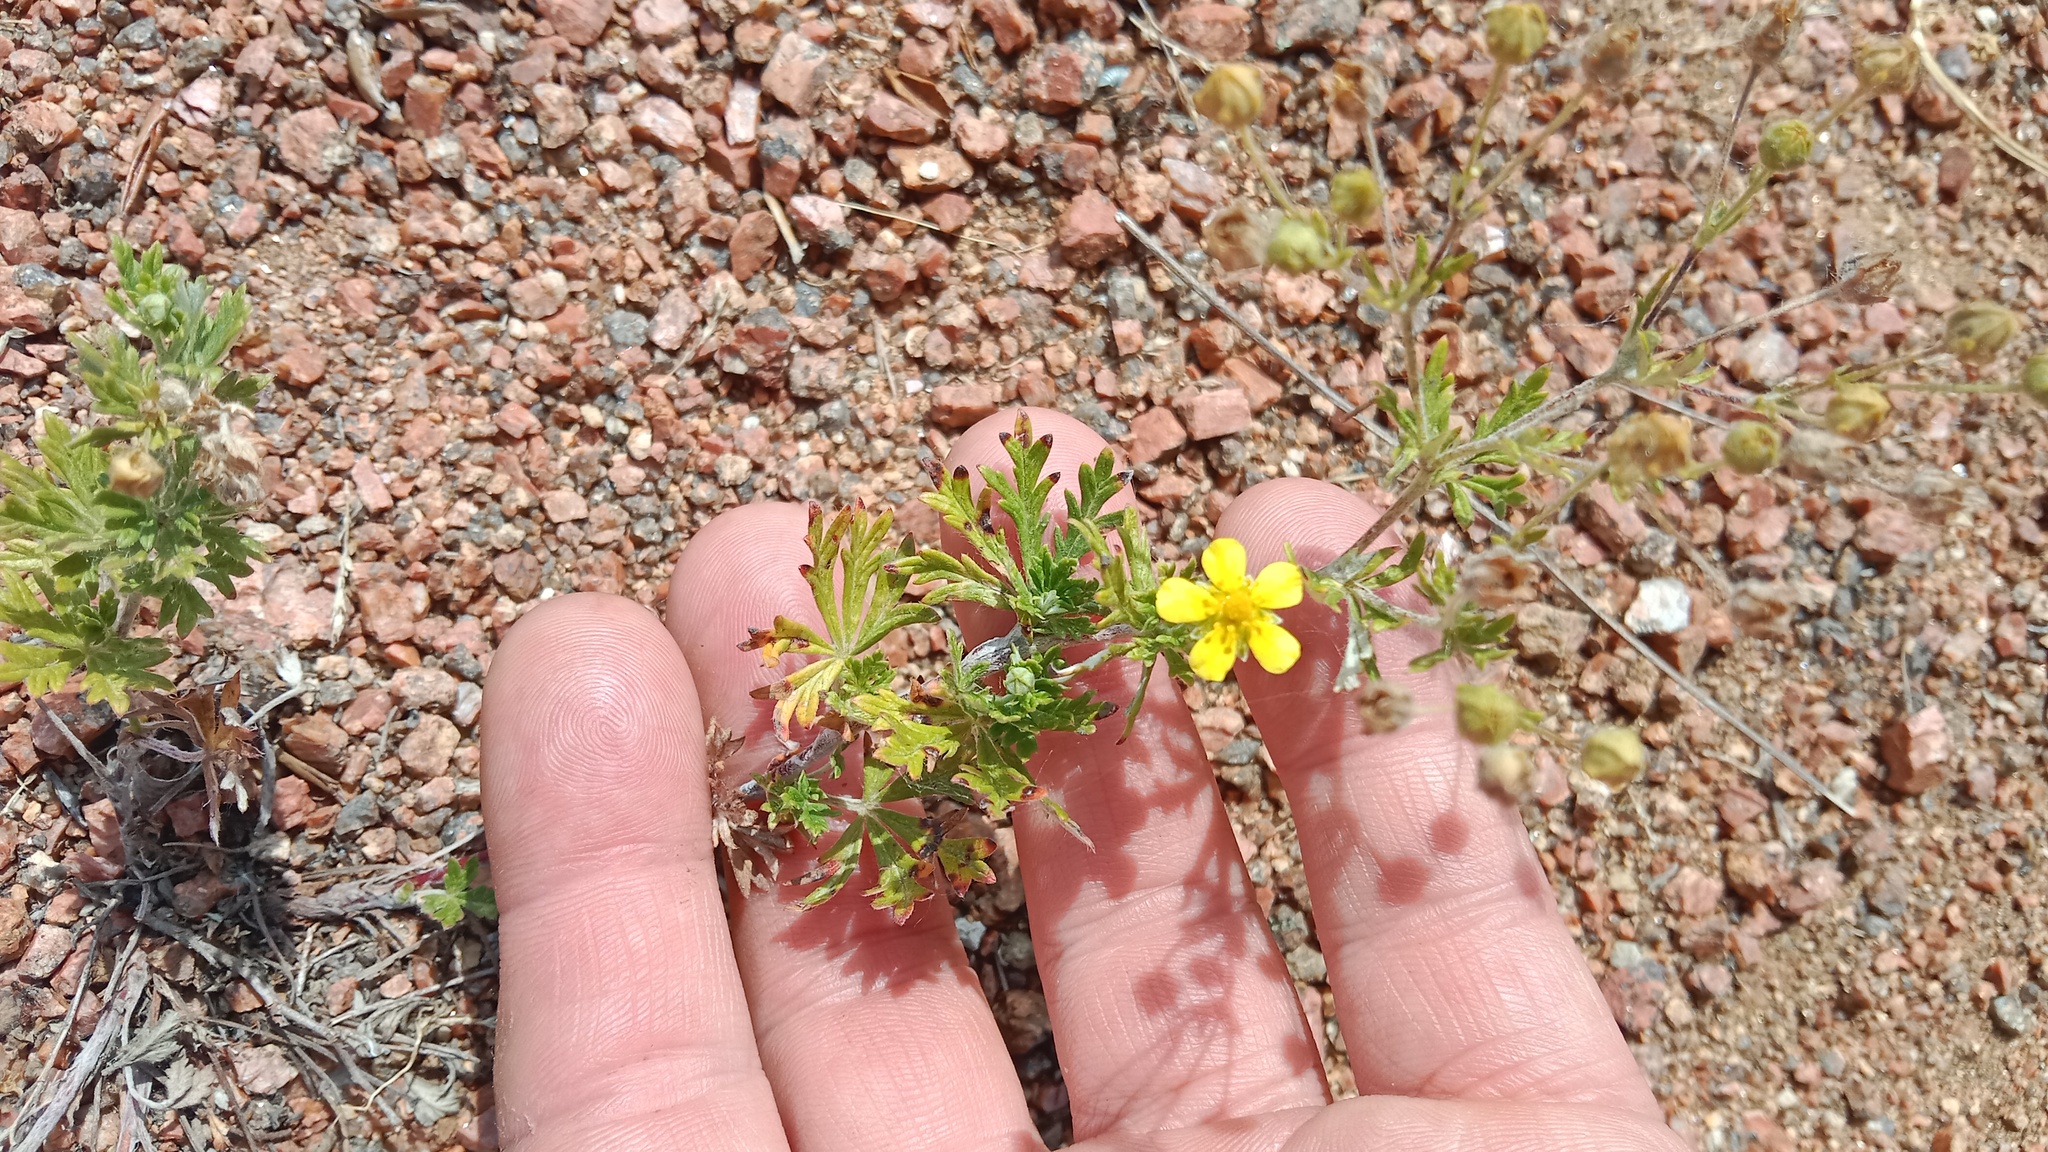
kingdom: Plantae
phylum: Tracheophyta
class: Magnoliopsida
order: Rosales
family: Rosaceae
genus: Potentilla
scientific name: Potentilla reptans
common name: Creeping cinquefoil
